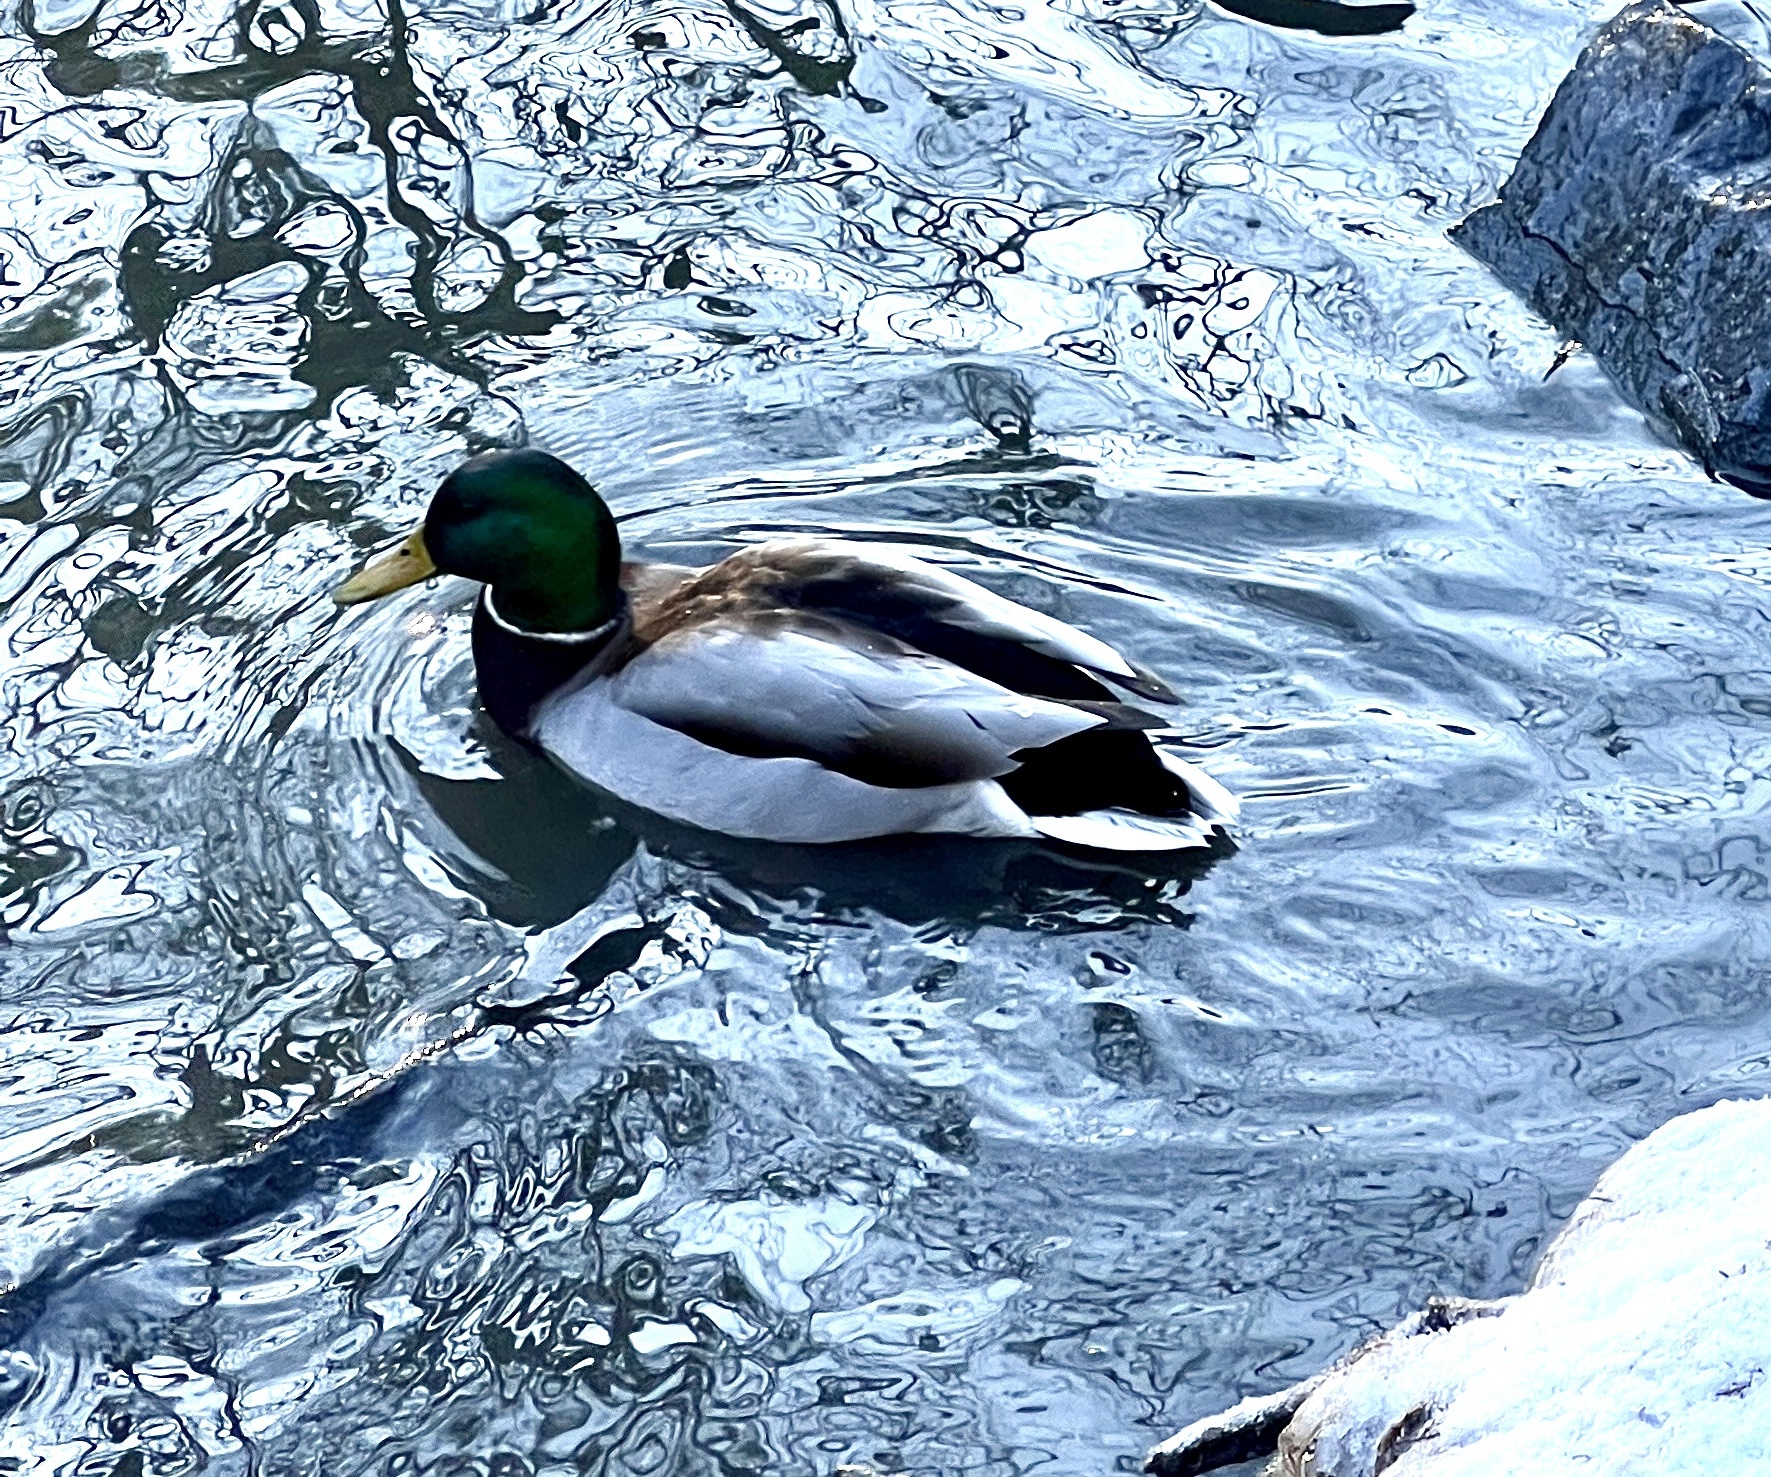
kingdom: Animalia
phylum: Chordata
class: Aves
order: Anseriformes
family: Anatidae
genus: Anas
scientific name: Anas platyrhynchos
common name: Mallard
